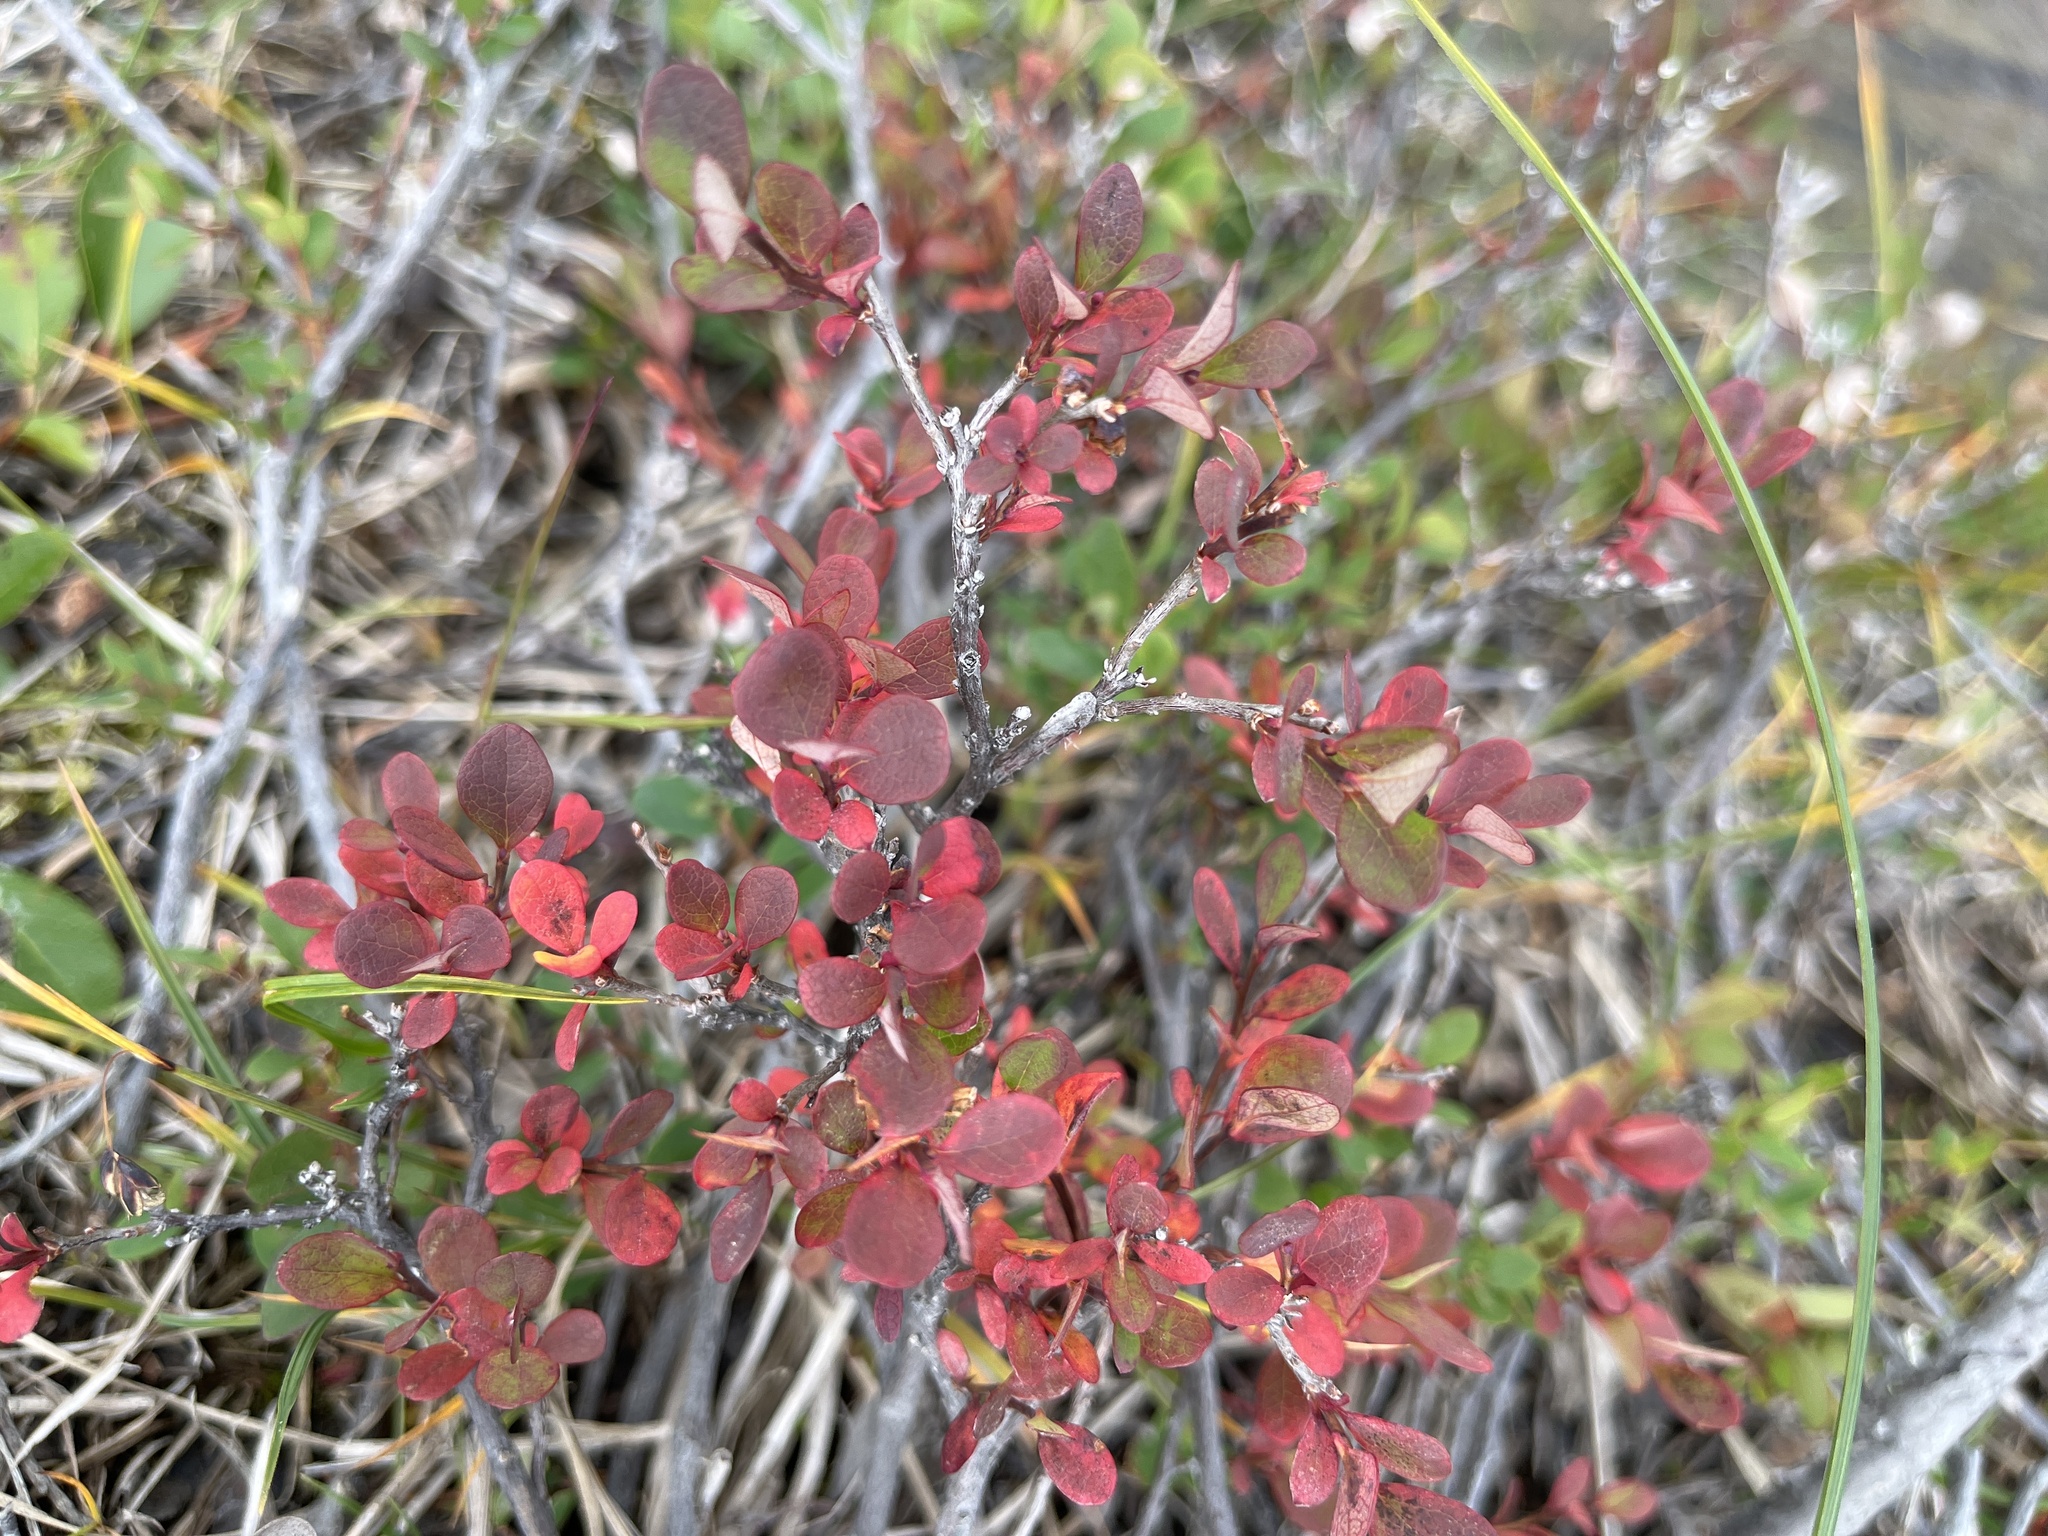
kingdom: Plantae
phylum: Tracheophyta
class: Magnoliopsida
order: Ericales
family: Ericaceae
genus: Vaccinium
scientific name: Vaccinium uliginosum
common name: Bog bilberry
